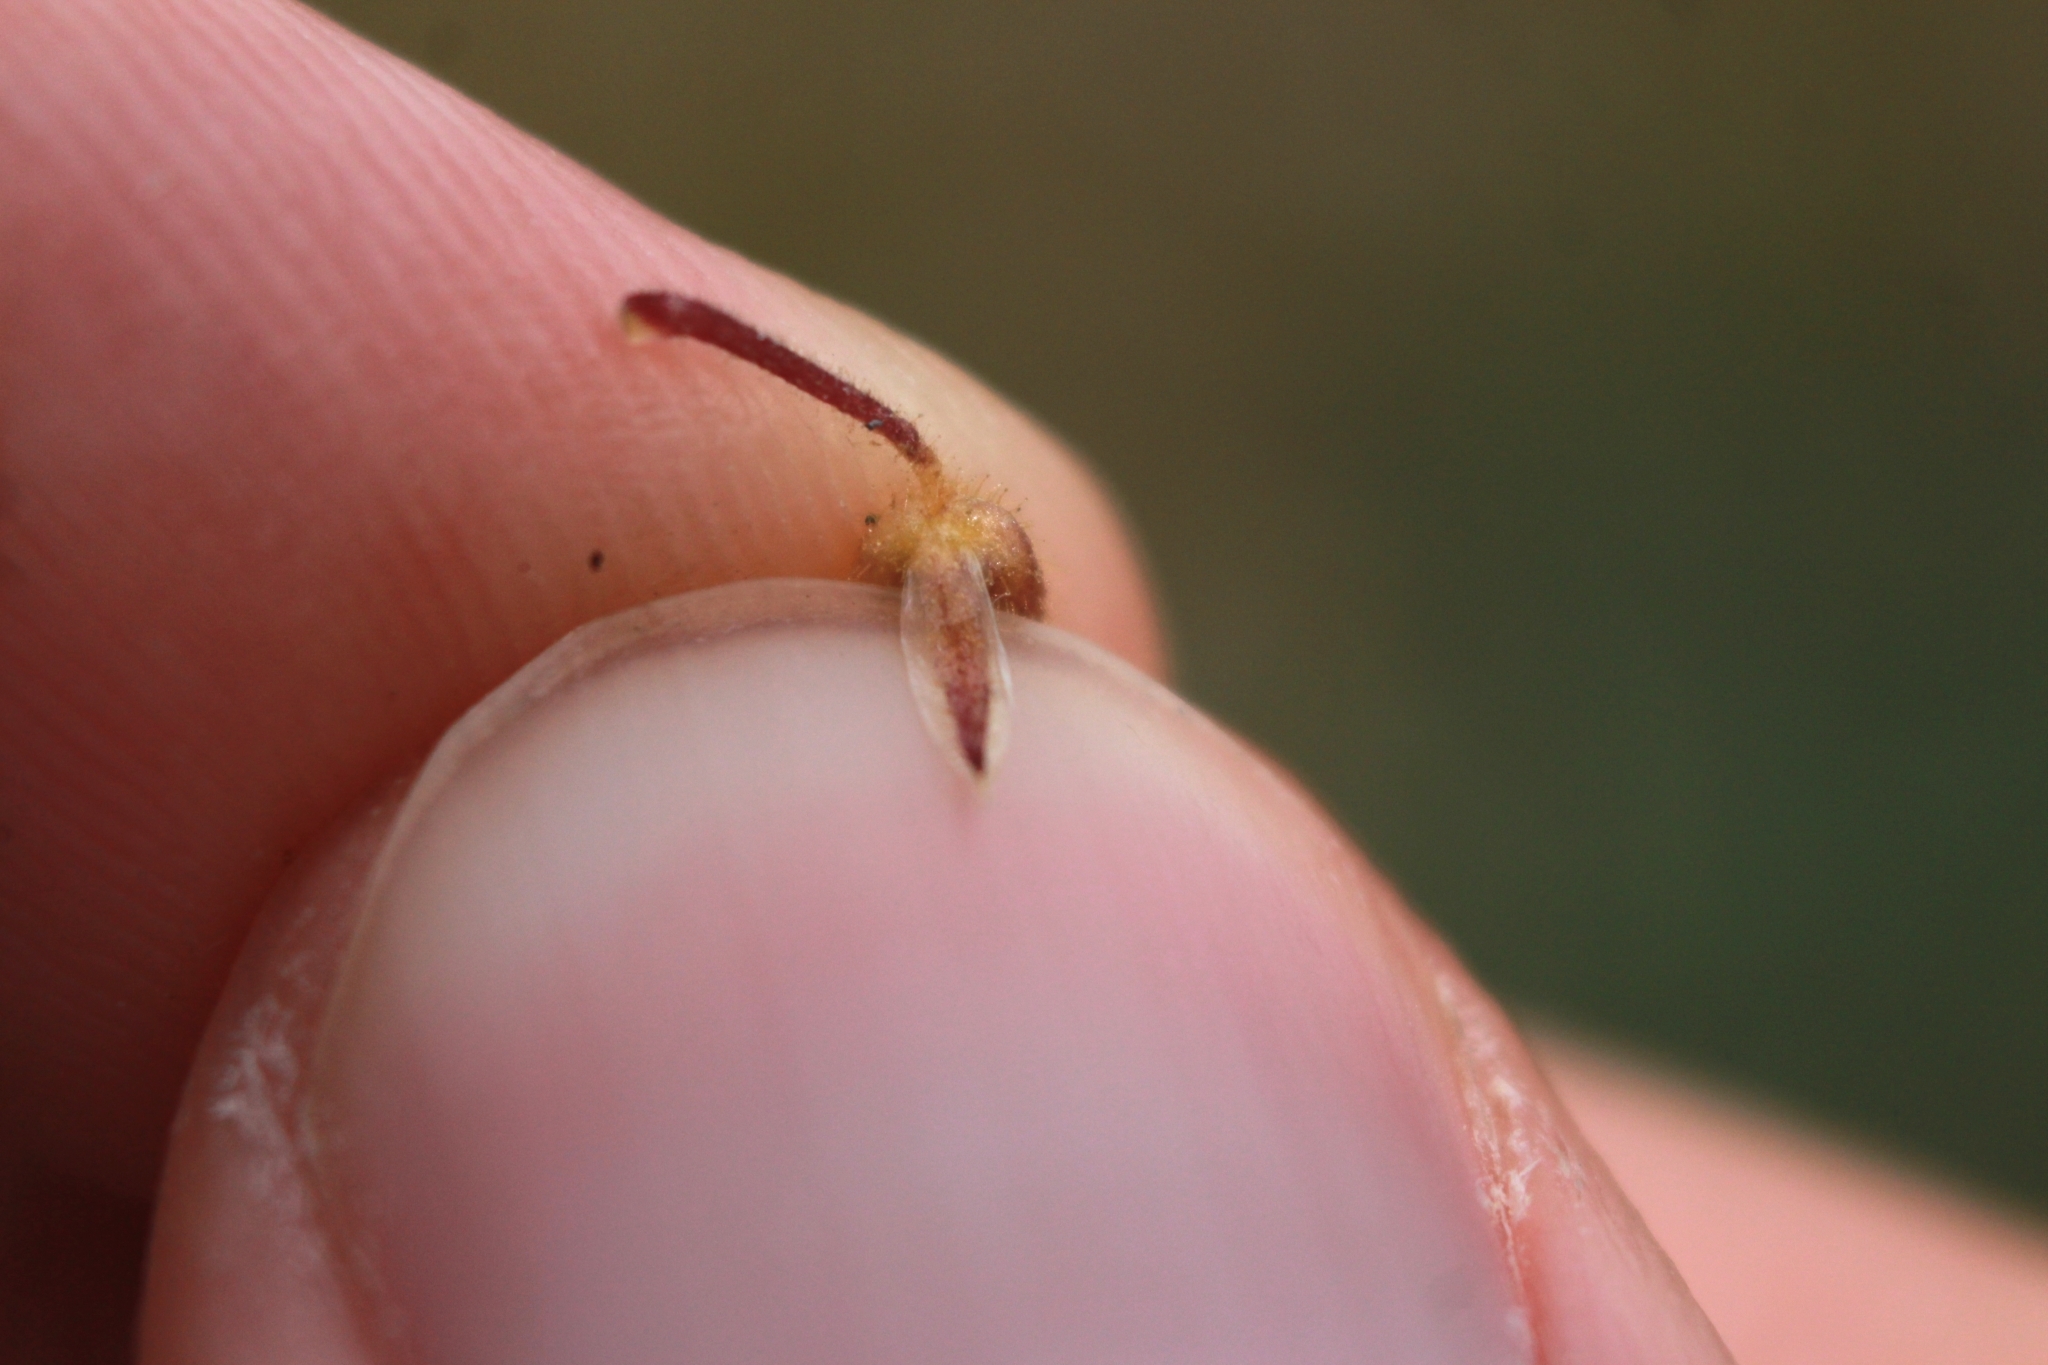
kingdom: Plantae
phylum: Tracheophyta
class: Magnoliopsida
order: Caryophyllales
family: Caryophyllaceae
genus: Cerastium
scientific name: Cerastium semidecandrum
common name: Little mouse-ear
